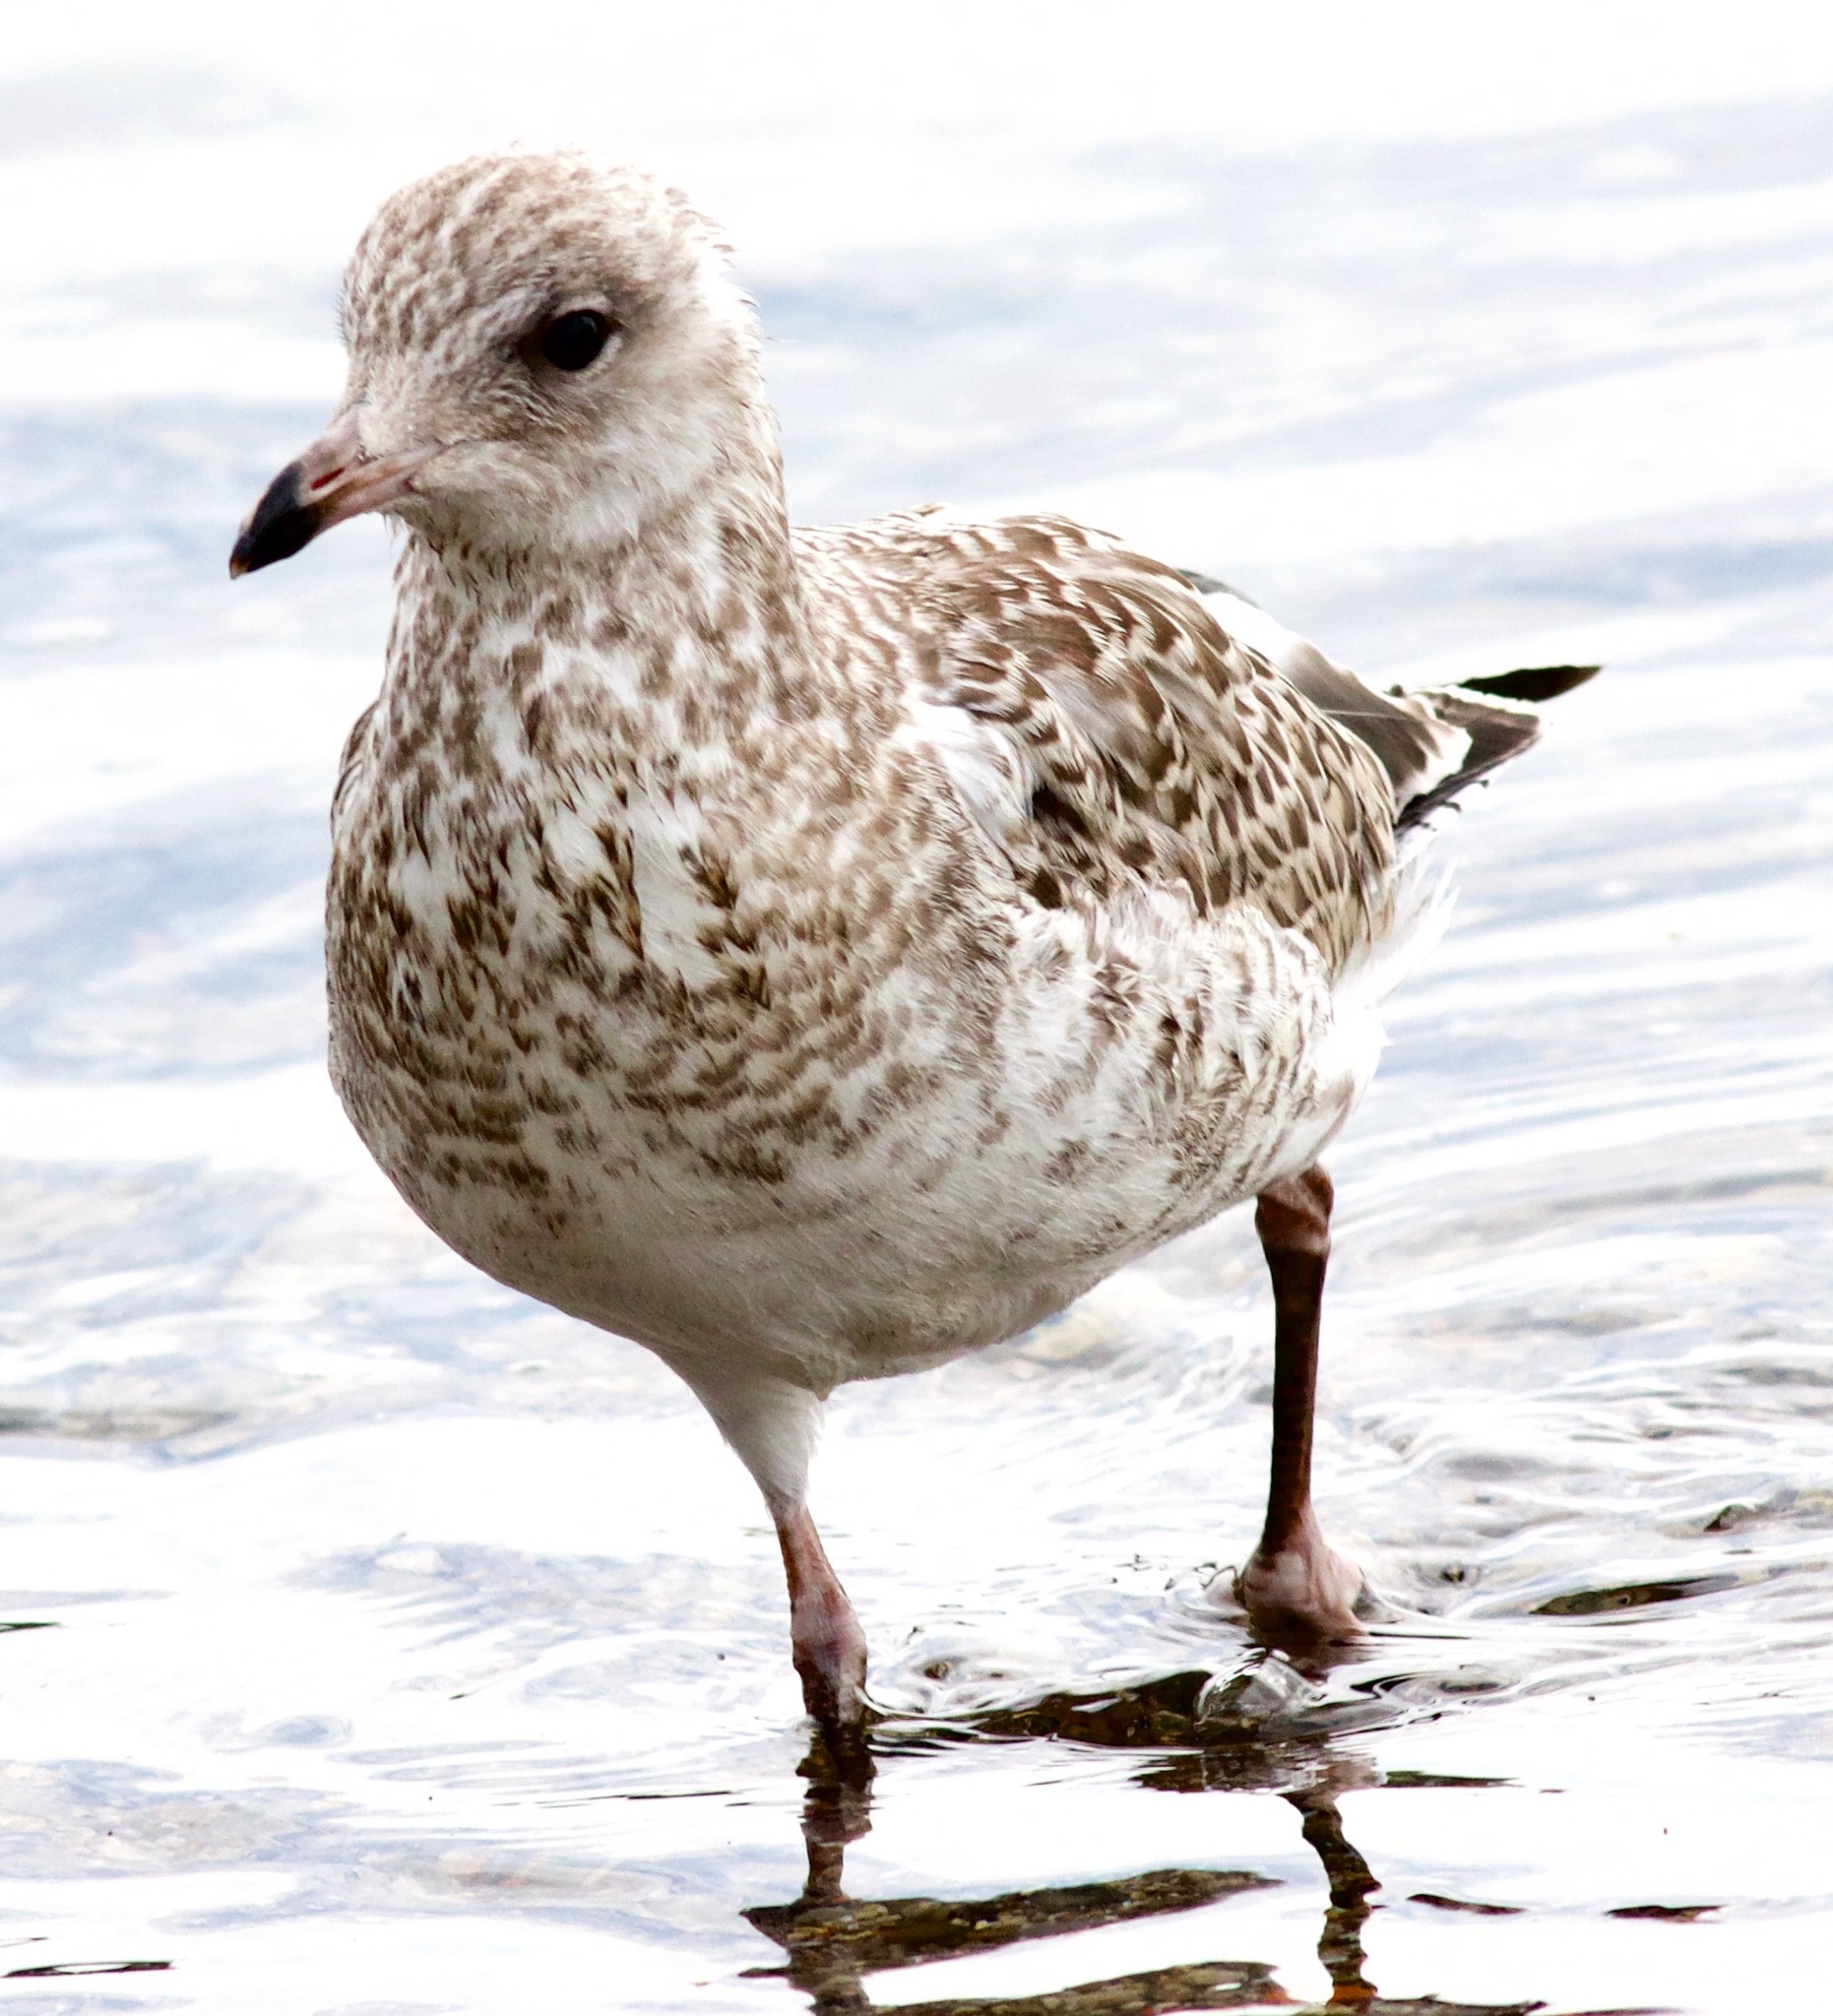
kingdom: Animalia
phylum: Chordata
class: Aves
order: Charadriiformes
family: Laridae
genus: Larus
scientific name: Larus delawarensis
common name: Ring-billed gull
